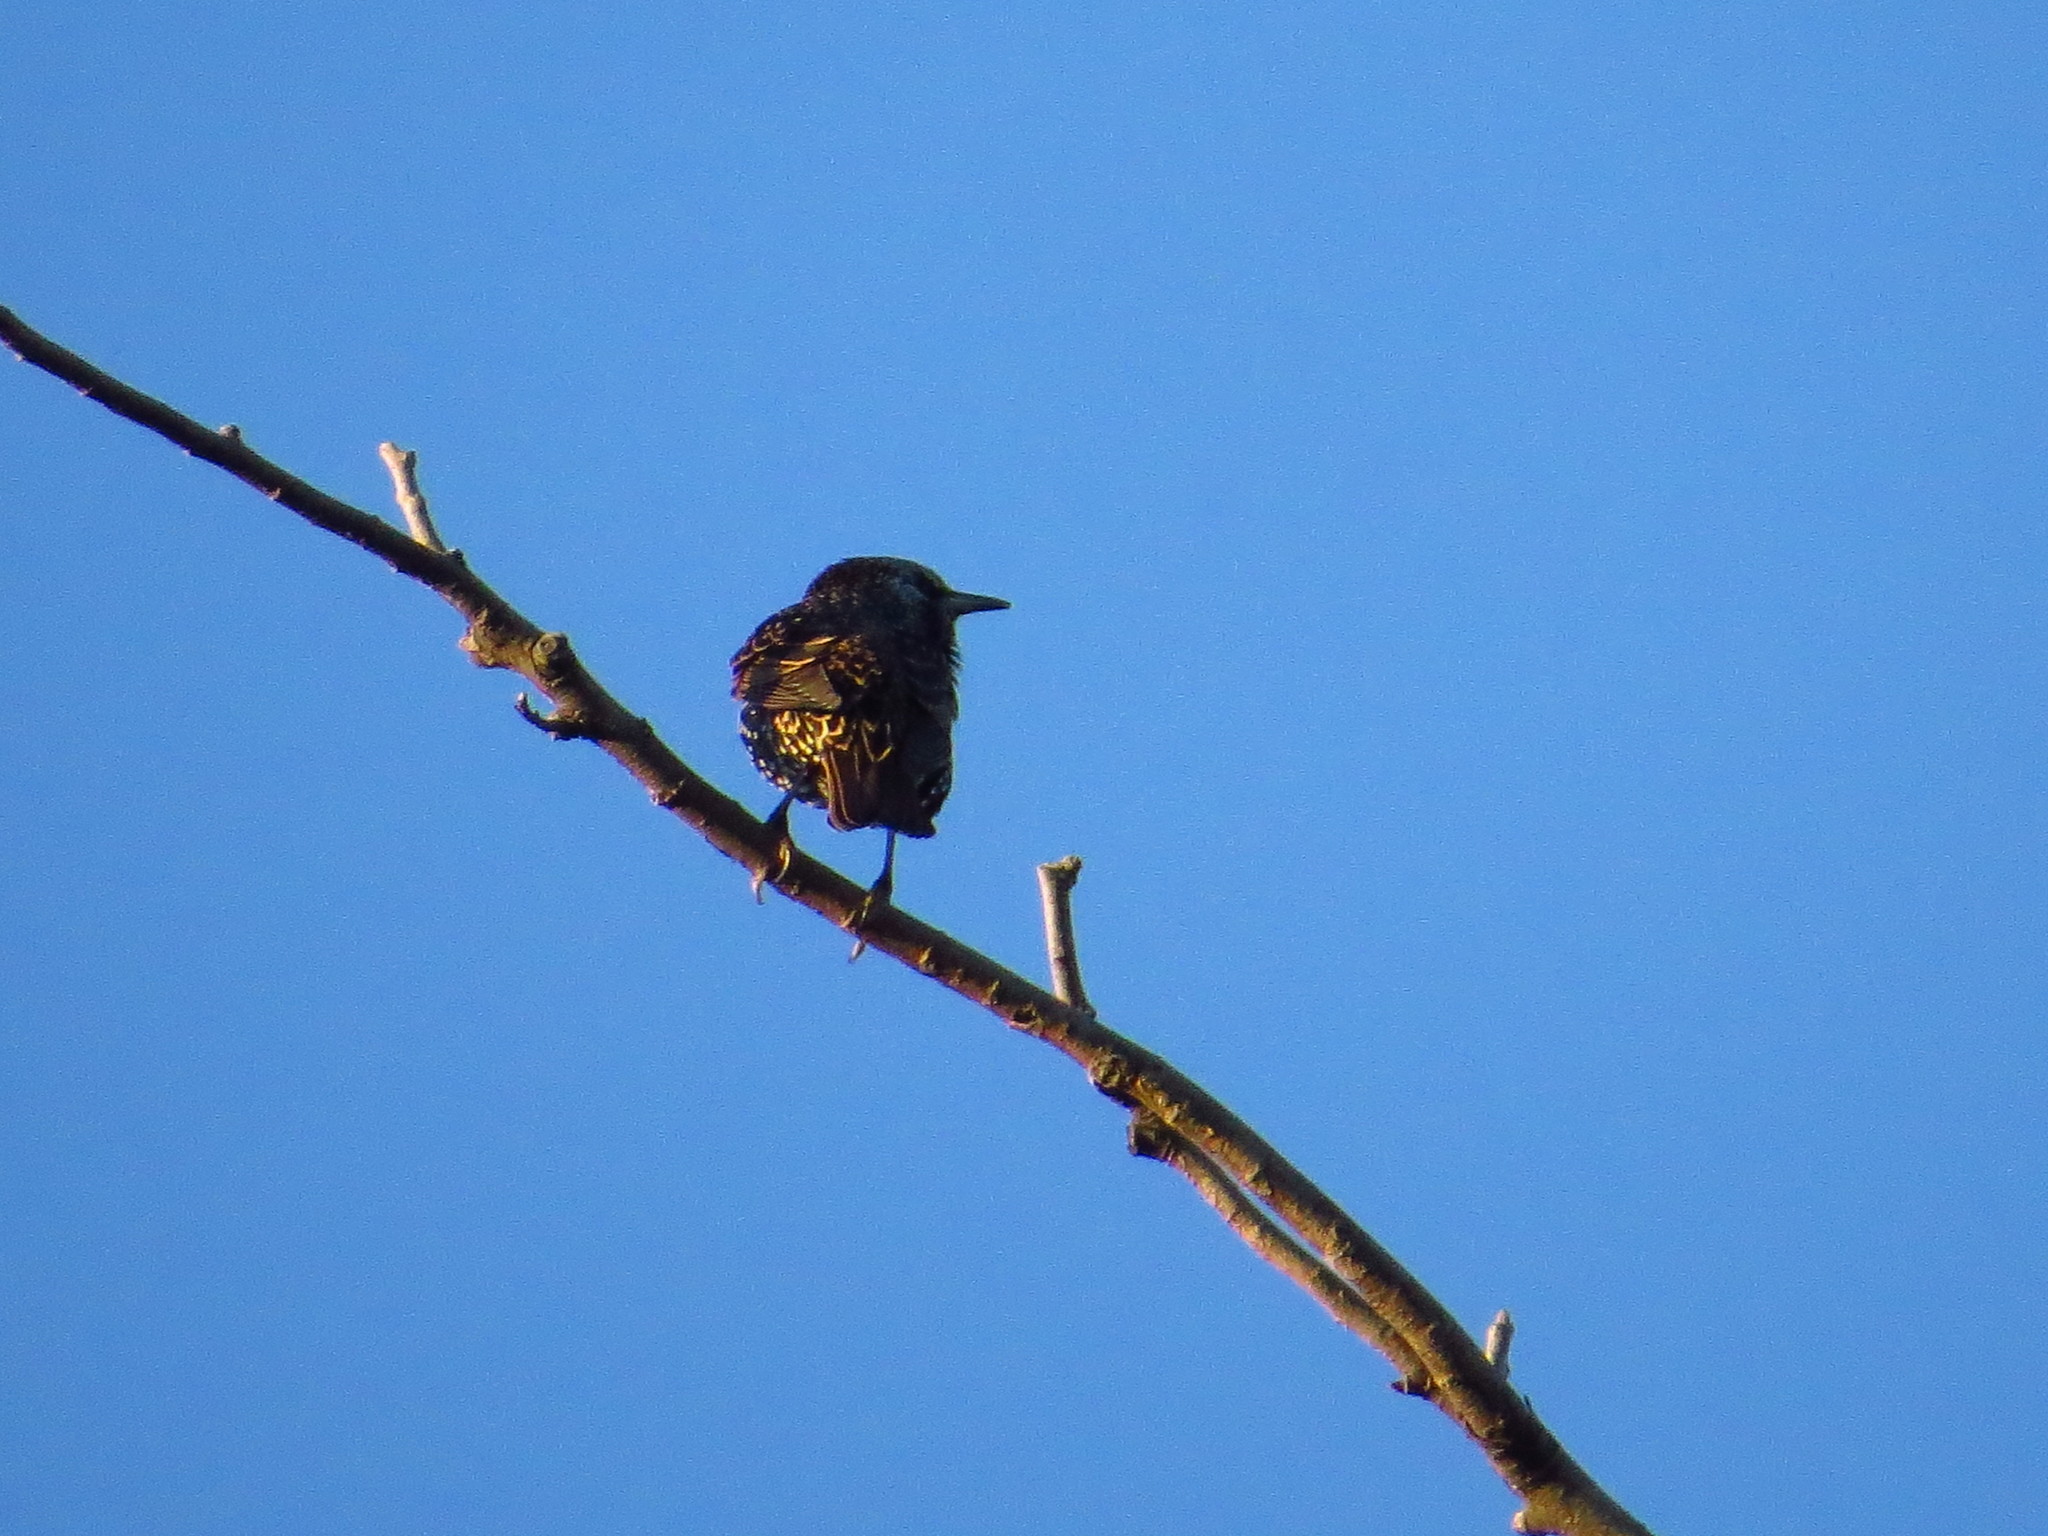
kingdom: Animalia
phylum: Chordata
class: Aves
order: Passeriformes
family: Sturnidae
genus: Sturnus
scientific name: Sturnus vulgaris
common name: Common starling
